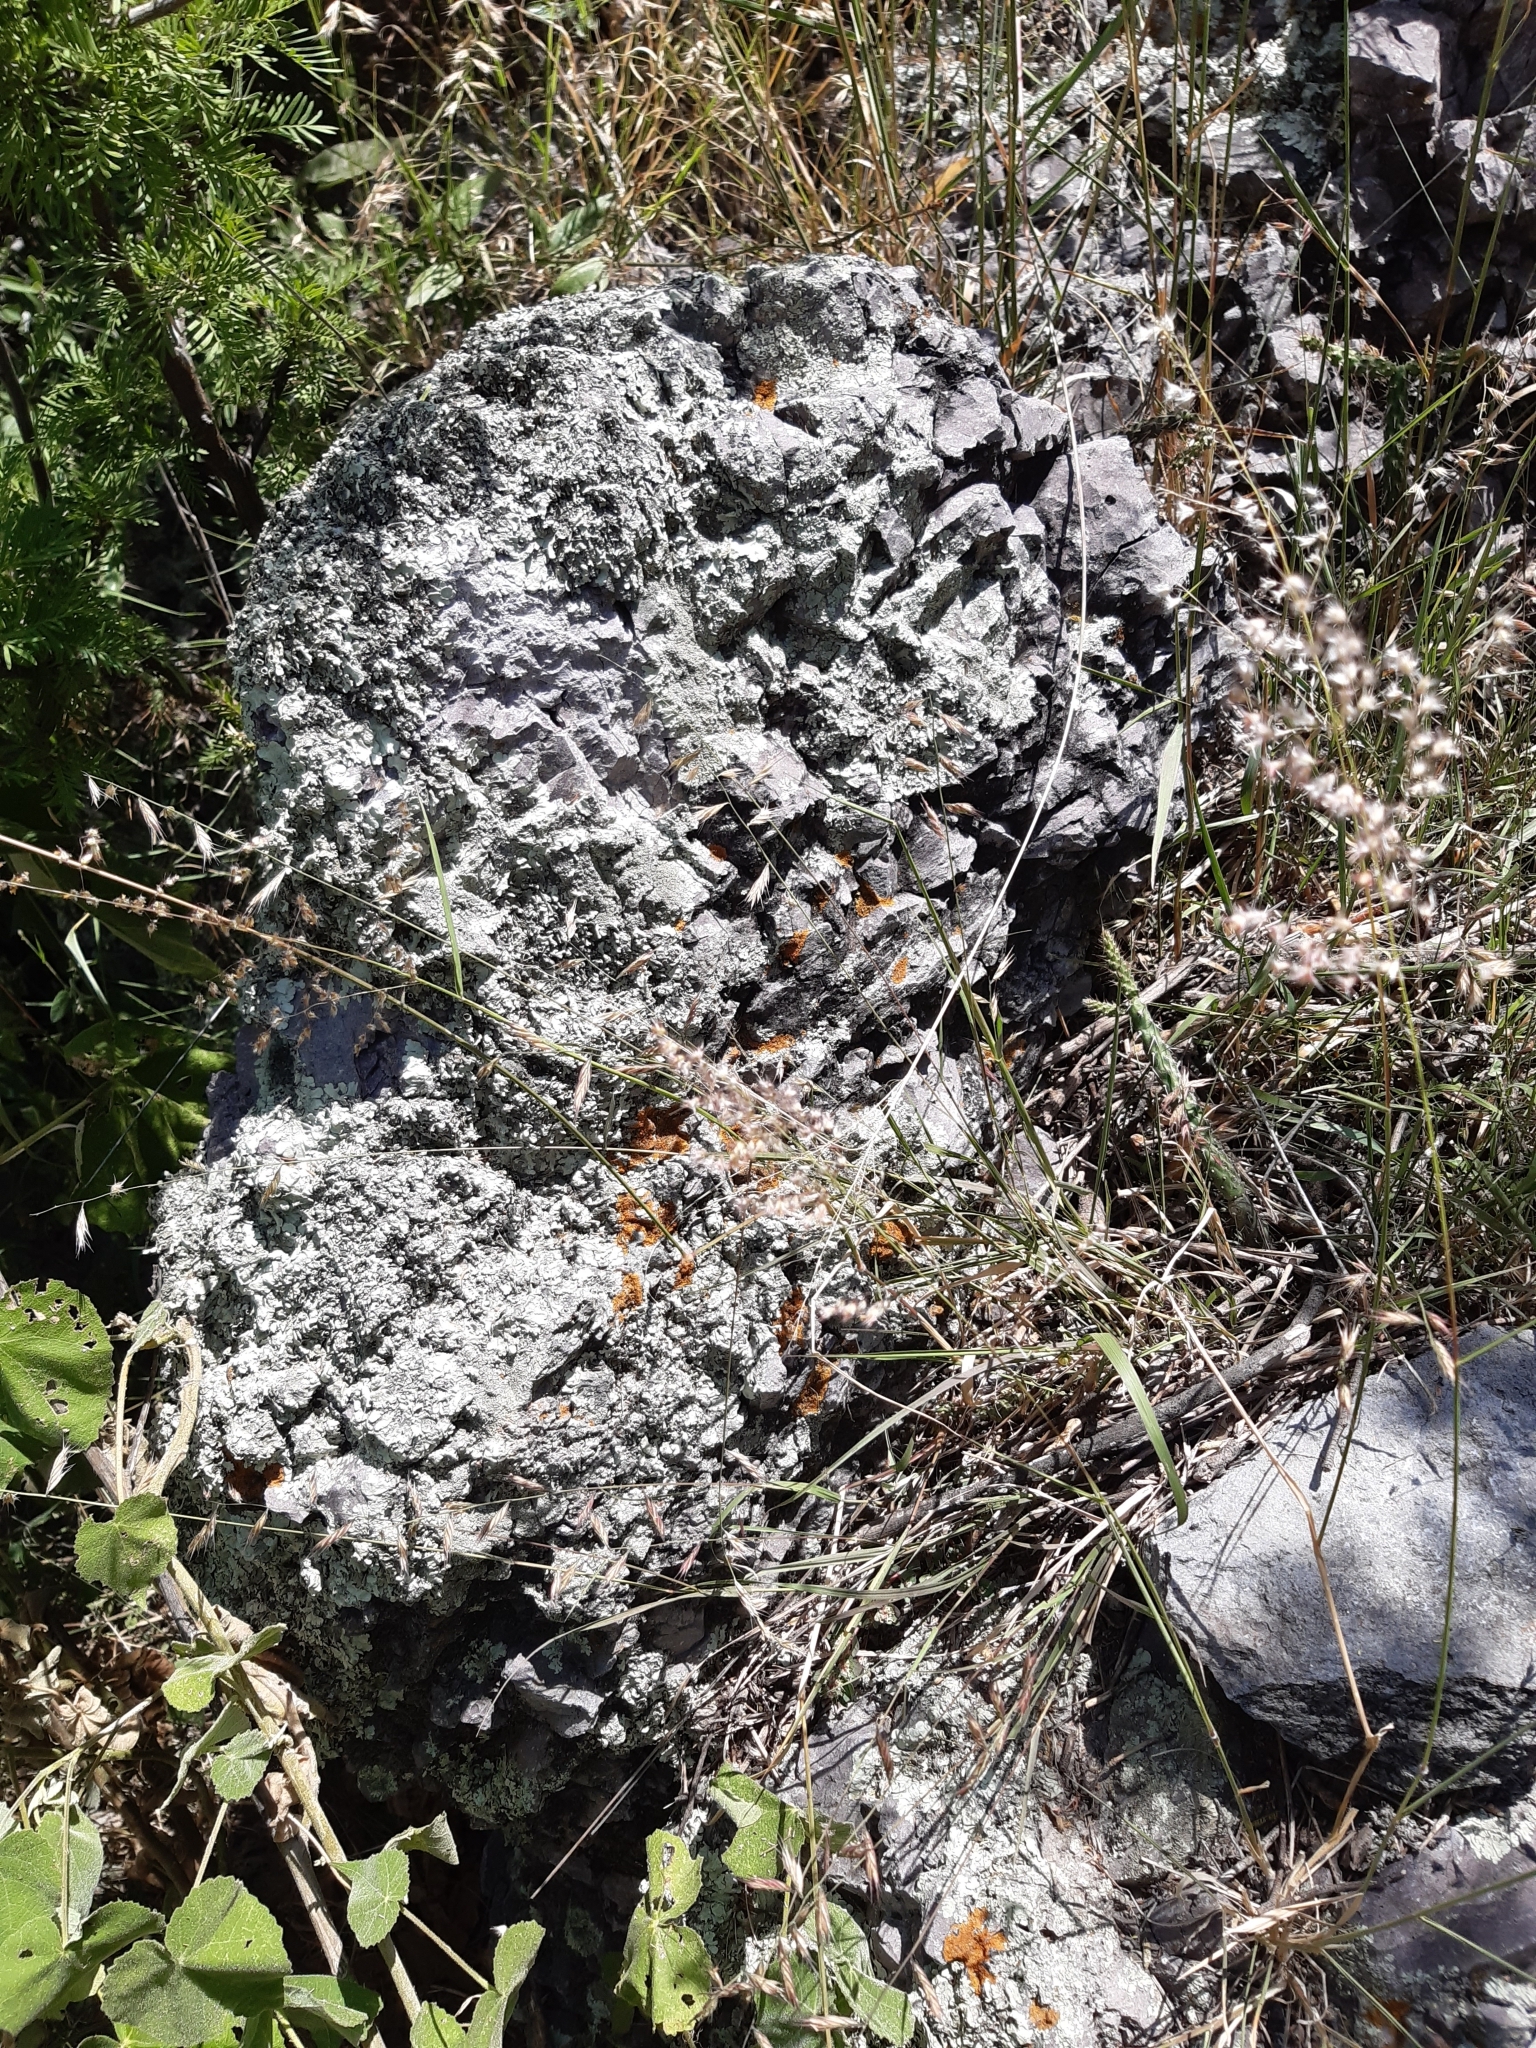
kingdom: Fungi
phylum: Ascomycota
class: Lecanoromycetes
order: Lecanorales
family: Parmeliaceae
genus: Xanthoparmelia
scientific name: Xanthoparmelia cumberlandia
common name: Cumberland rock shield
